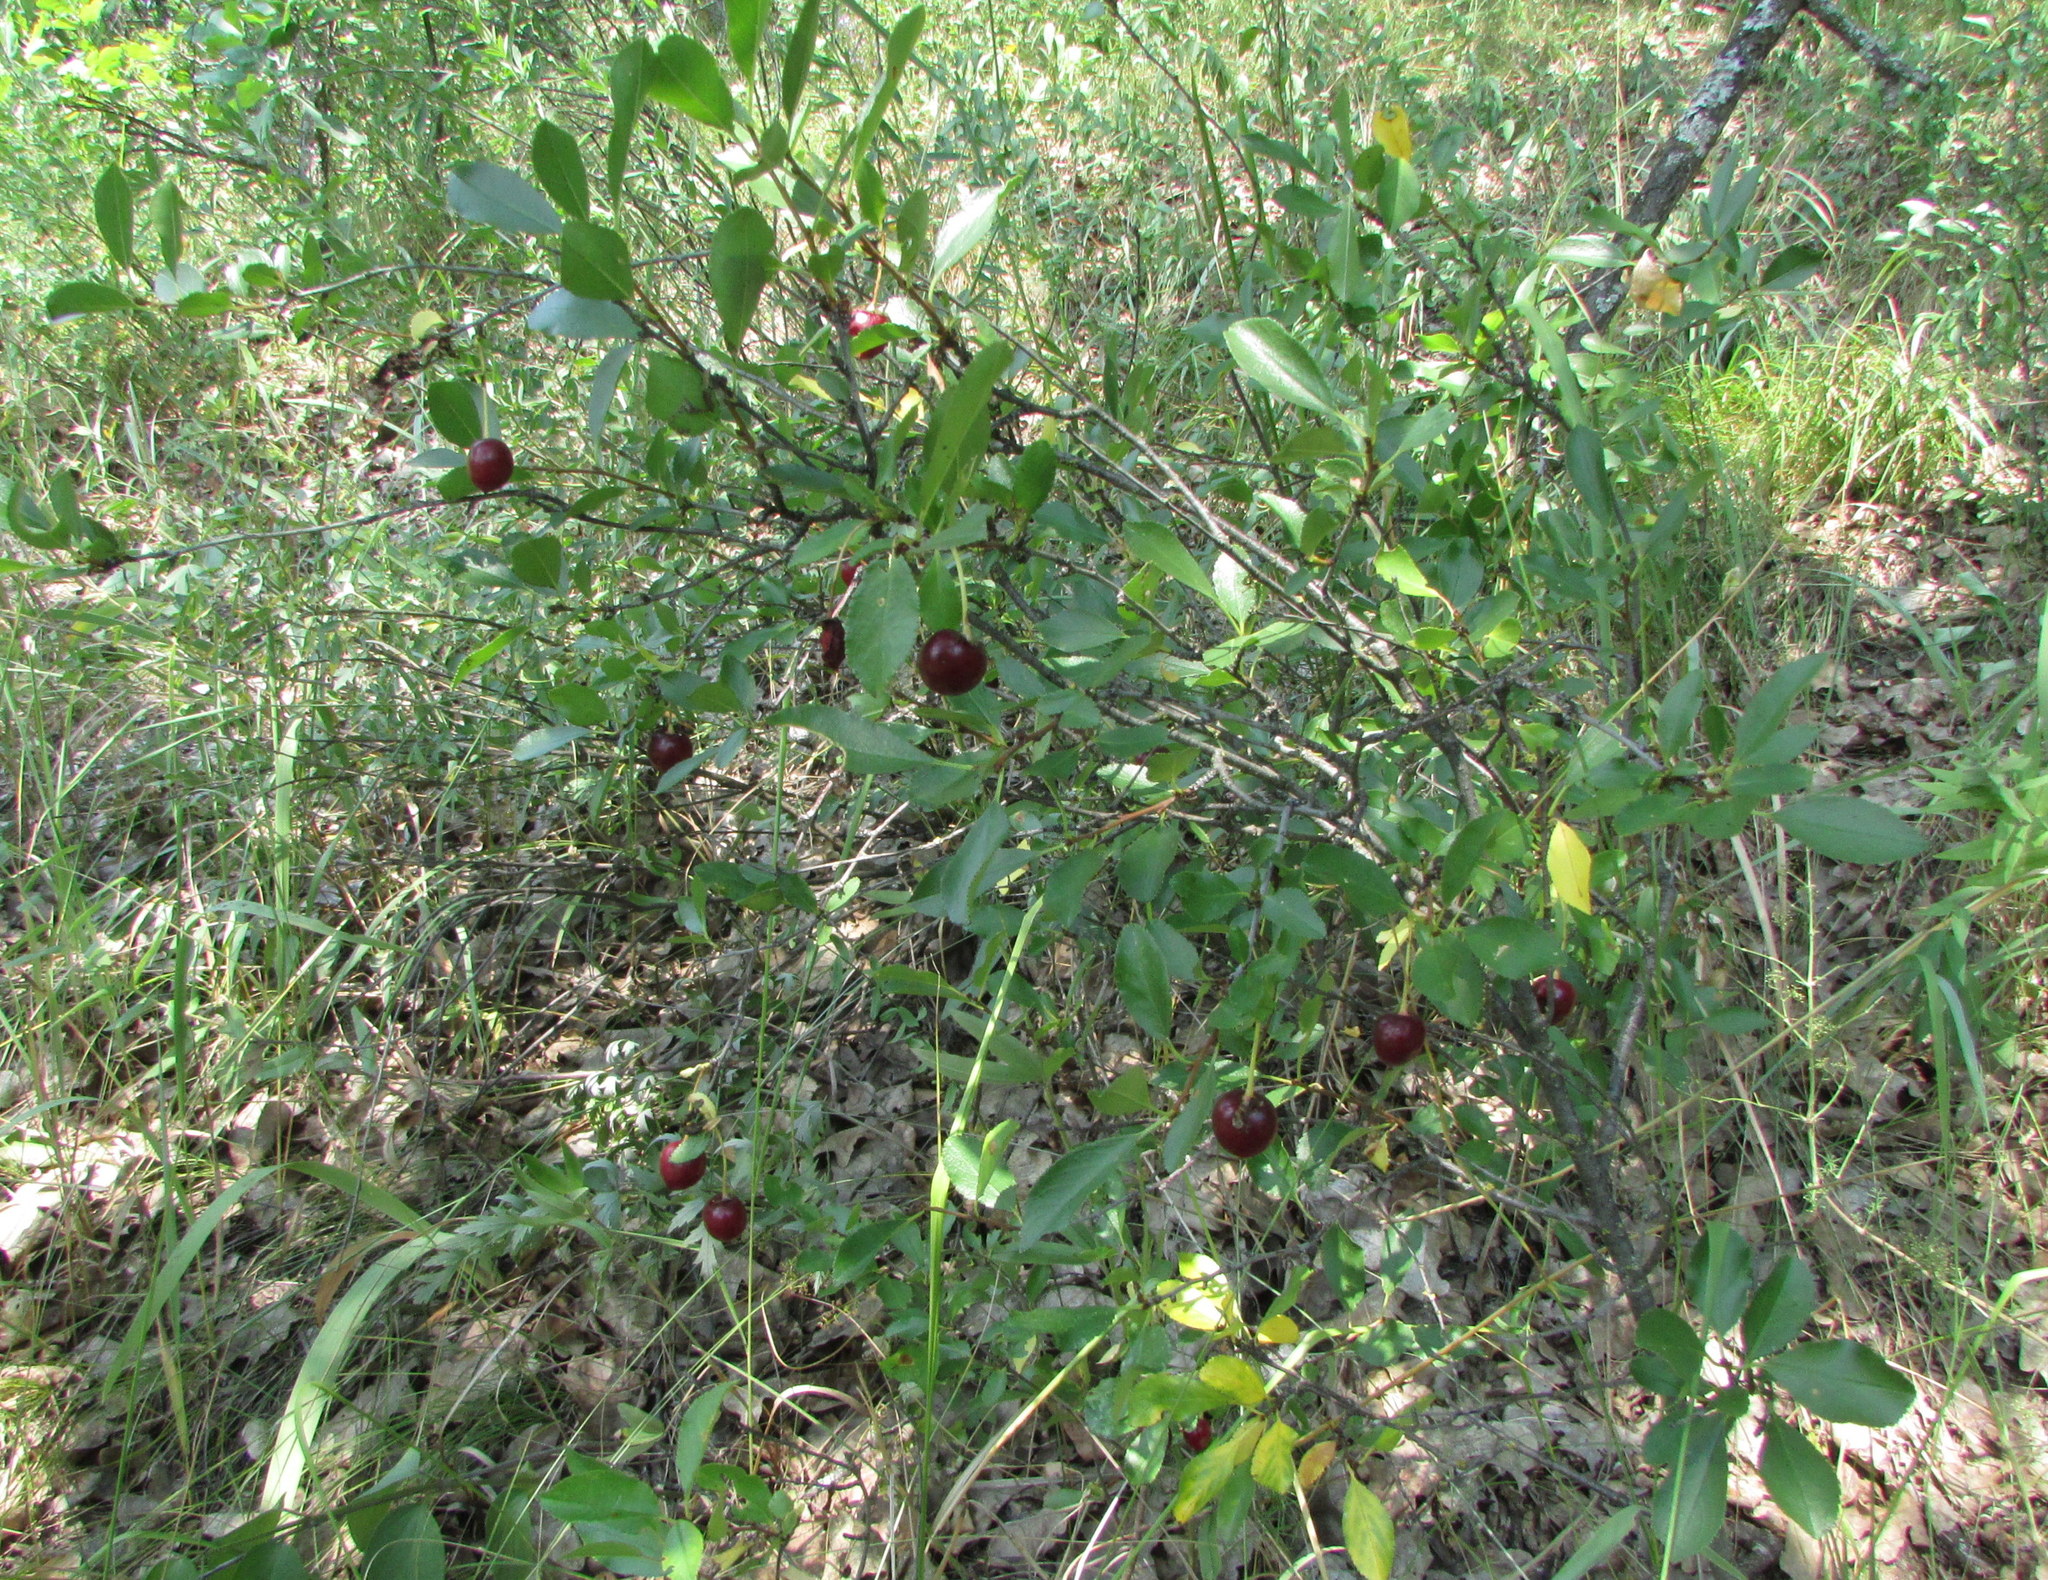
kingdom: Plantae
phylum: Tracheophyta
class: Magnoliopsida
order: Rosales
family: Rosaceae
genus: Prunus
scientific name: Prunus fruticosa
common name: European dwarf cherry
